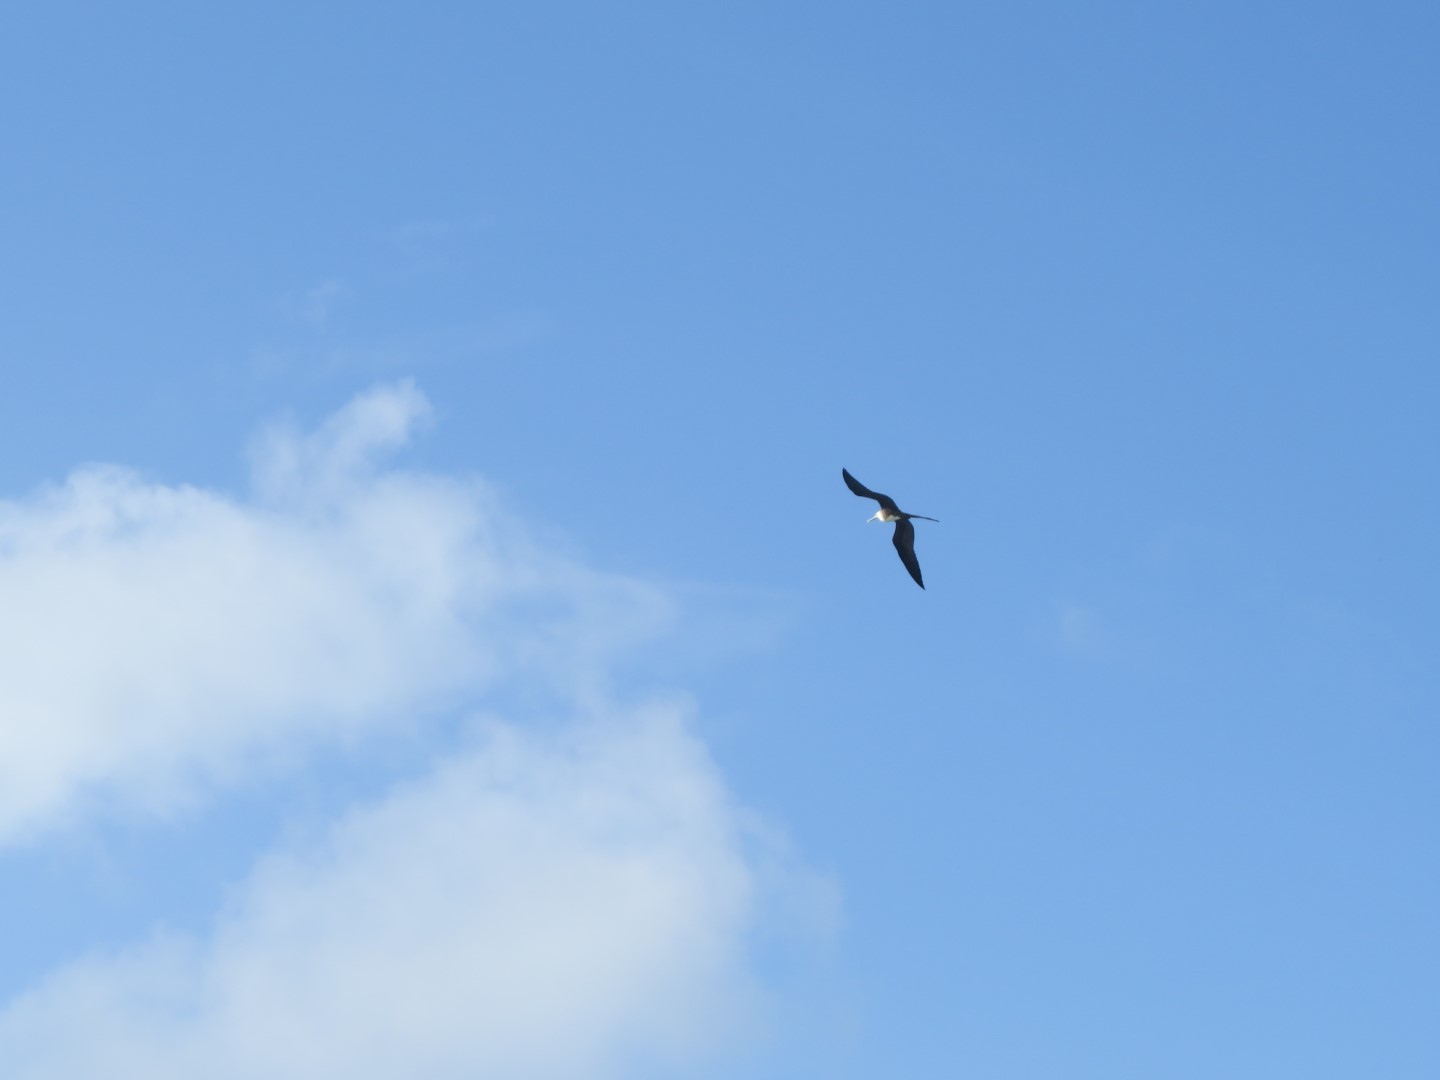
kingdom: Animalia
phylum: Chordata
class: Aves
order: Suliformes
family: Fregatidae
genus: Fregata
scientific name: Fregata magnificens
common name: Magnificent frigatebird
